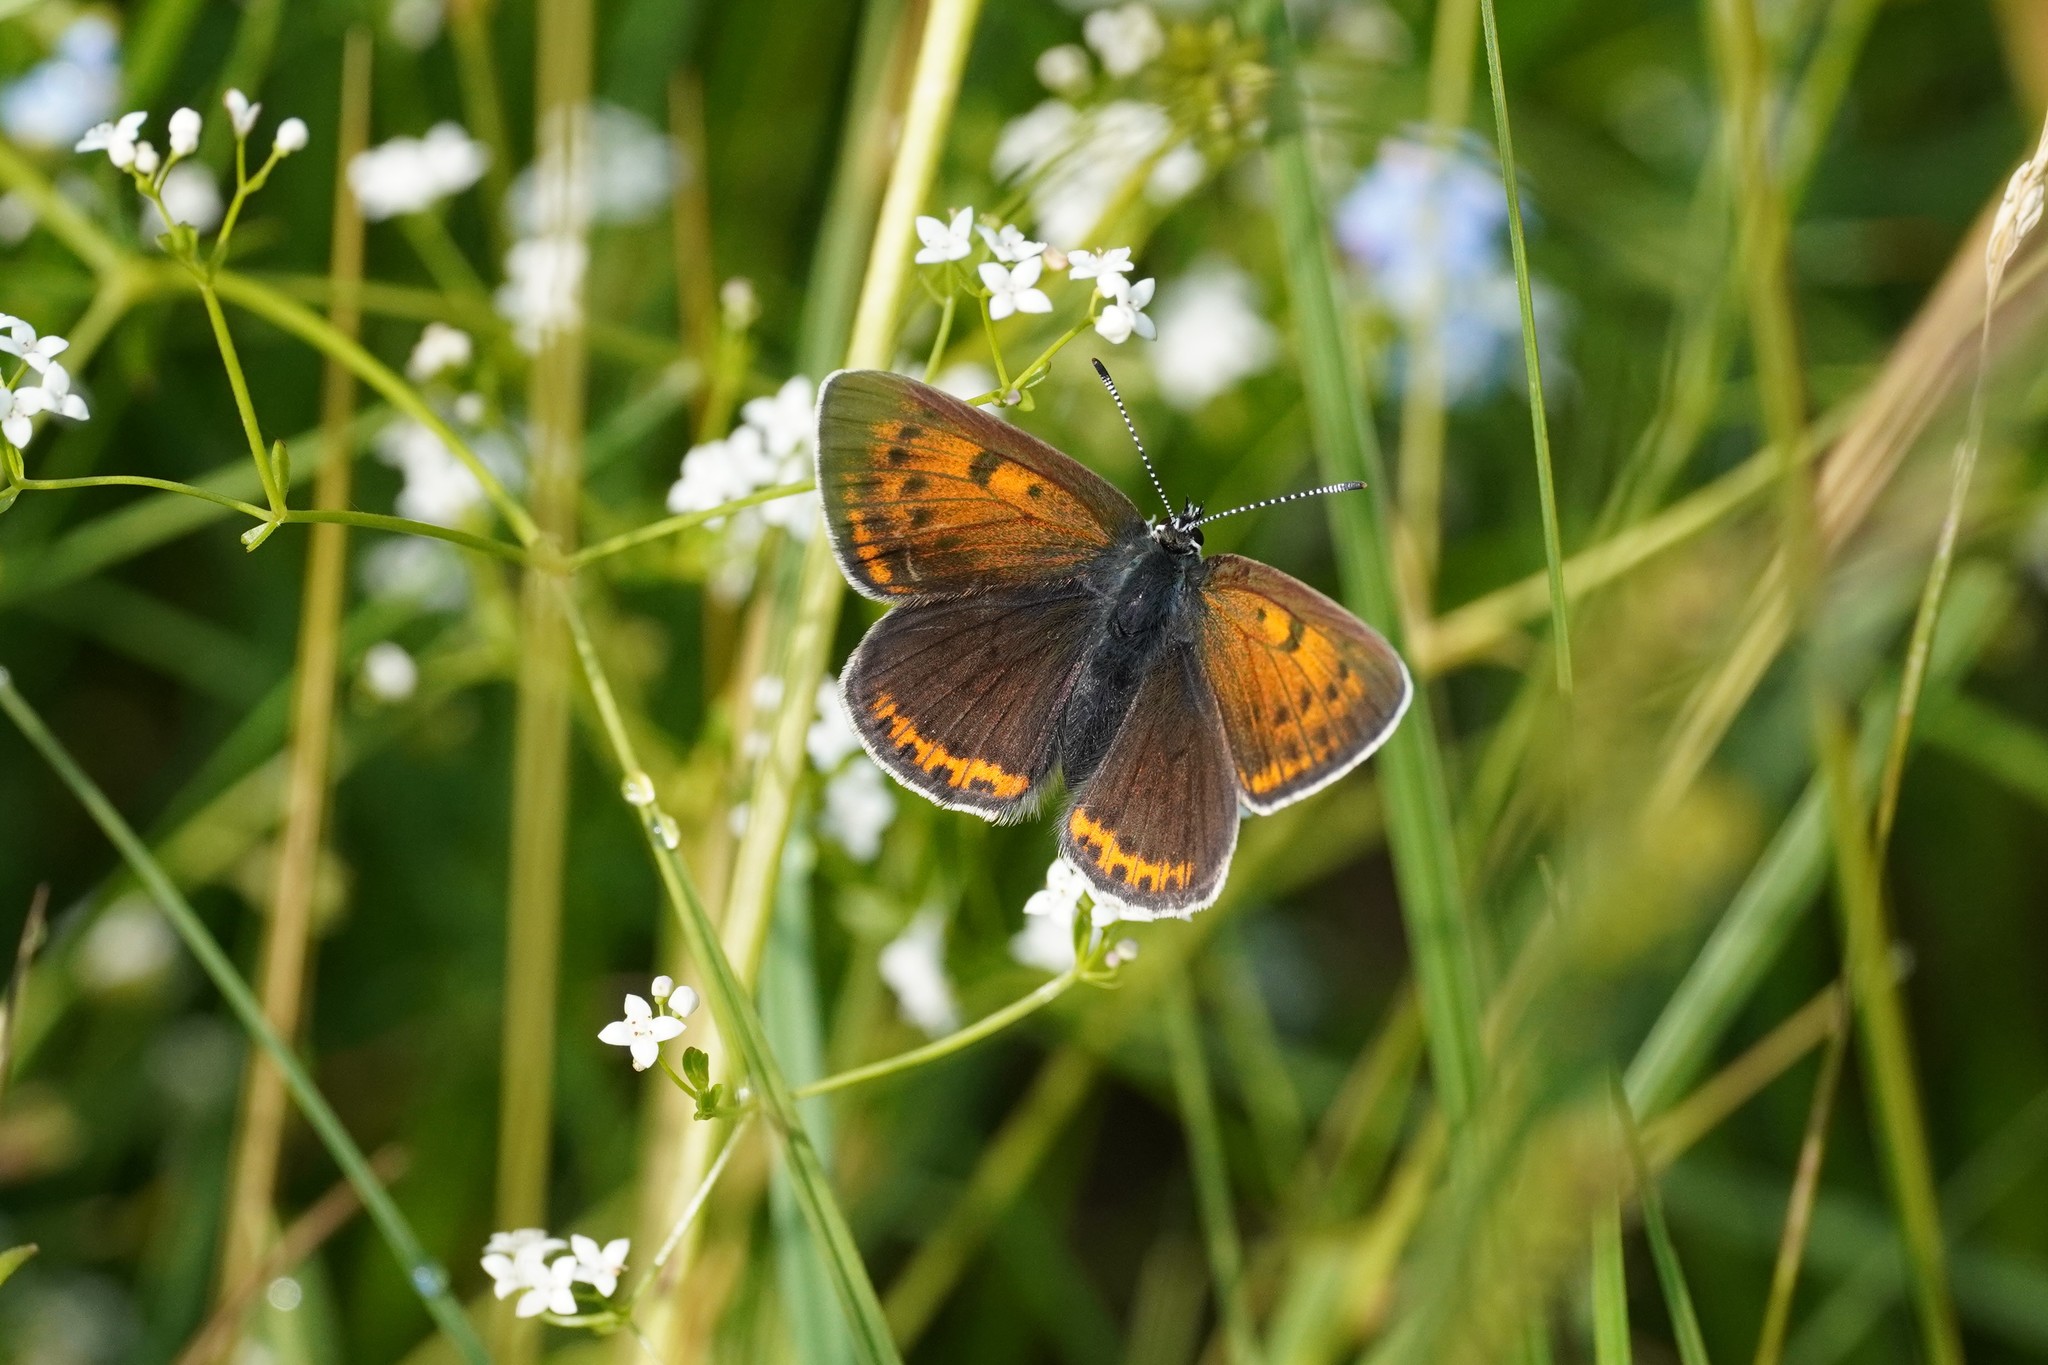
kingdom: Animalia
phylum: Arthropoda
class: Insecta
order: Lepidoptera
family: Lycaenidae
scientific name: Lycaenidae
